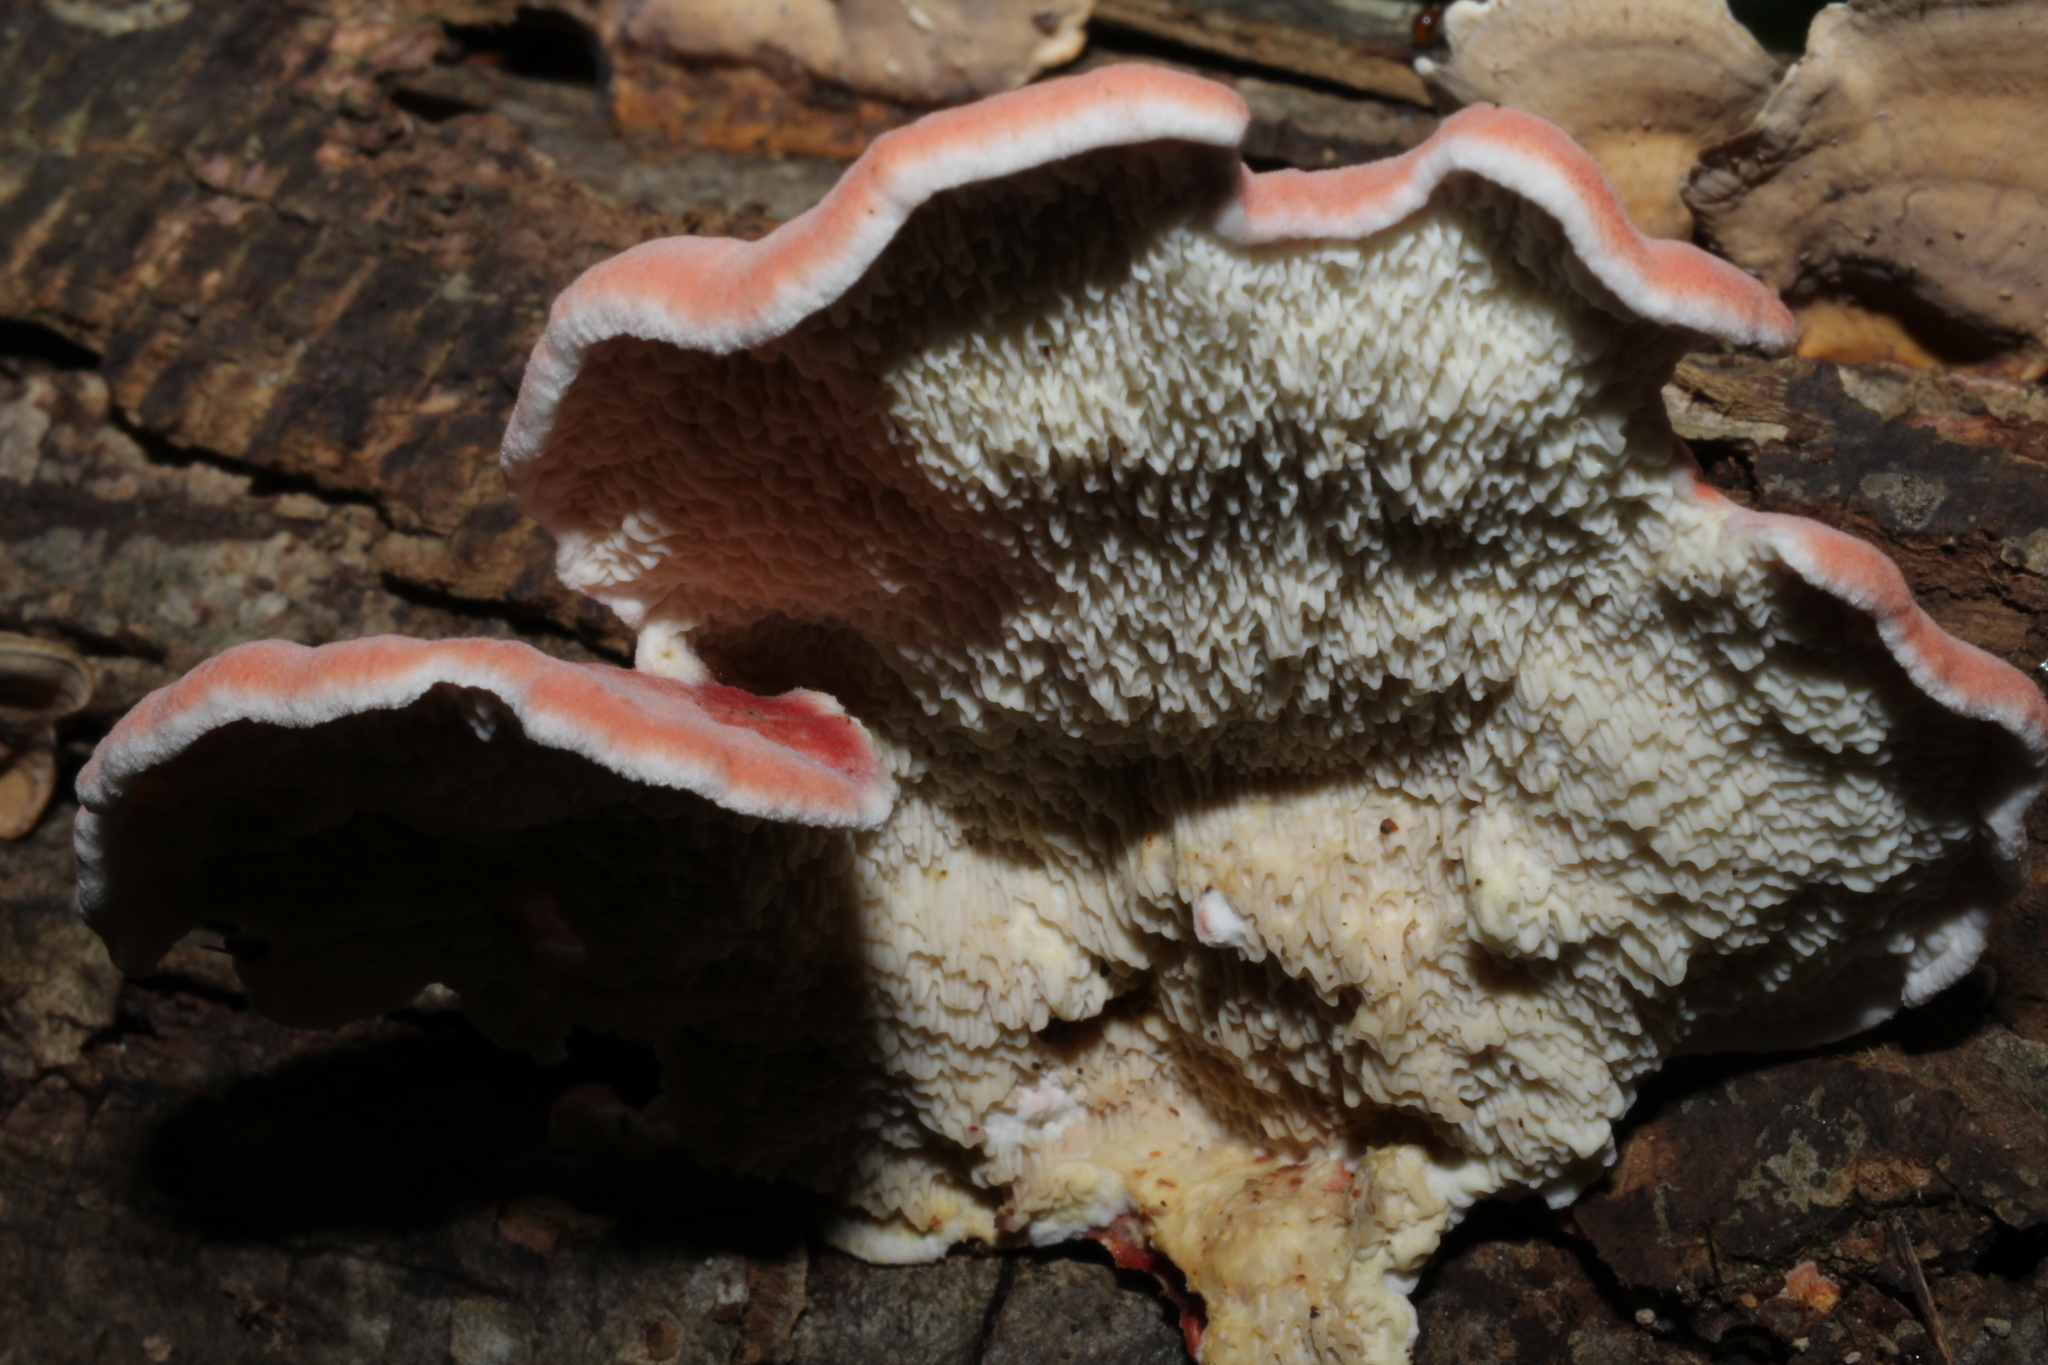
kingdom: Fungi
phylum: Basidiomycota
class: Agaricomycetes
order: Polyporales
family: Irpicaceae
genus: Byssomerulius
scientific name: Byssomerulius incarnatus
